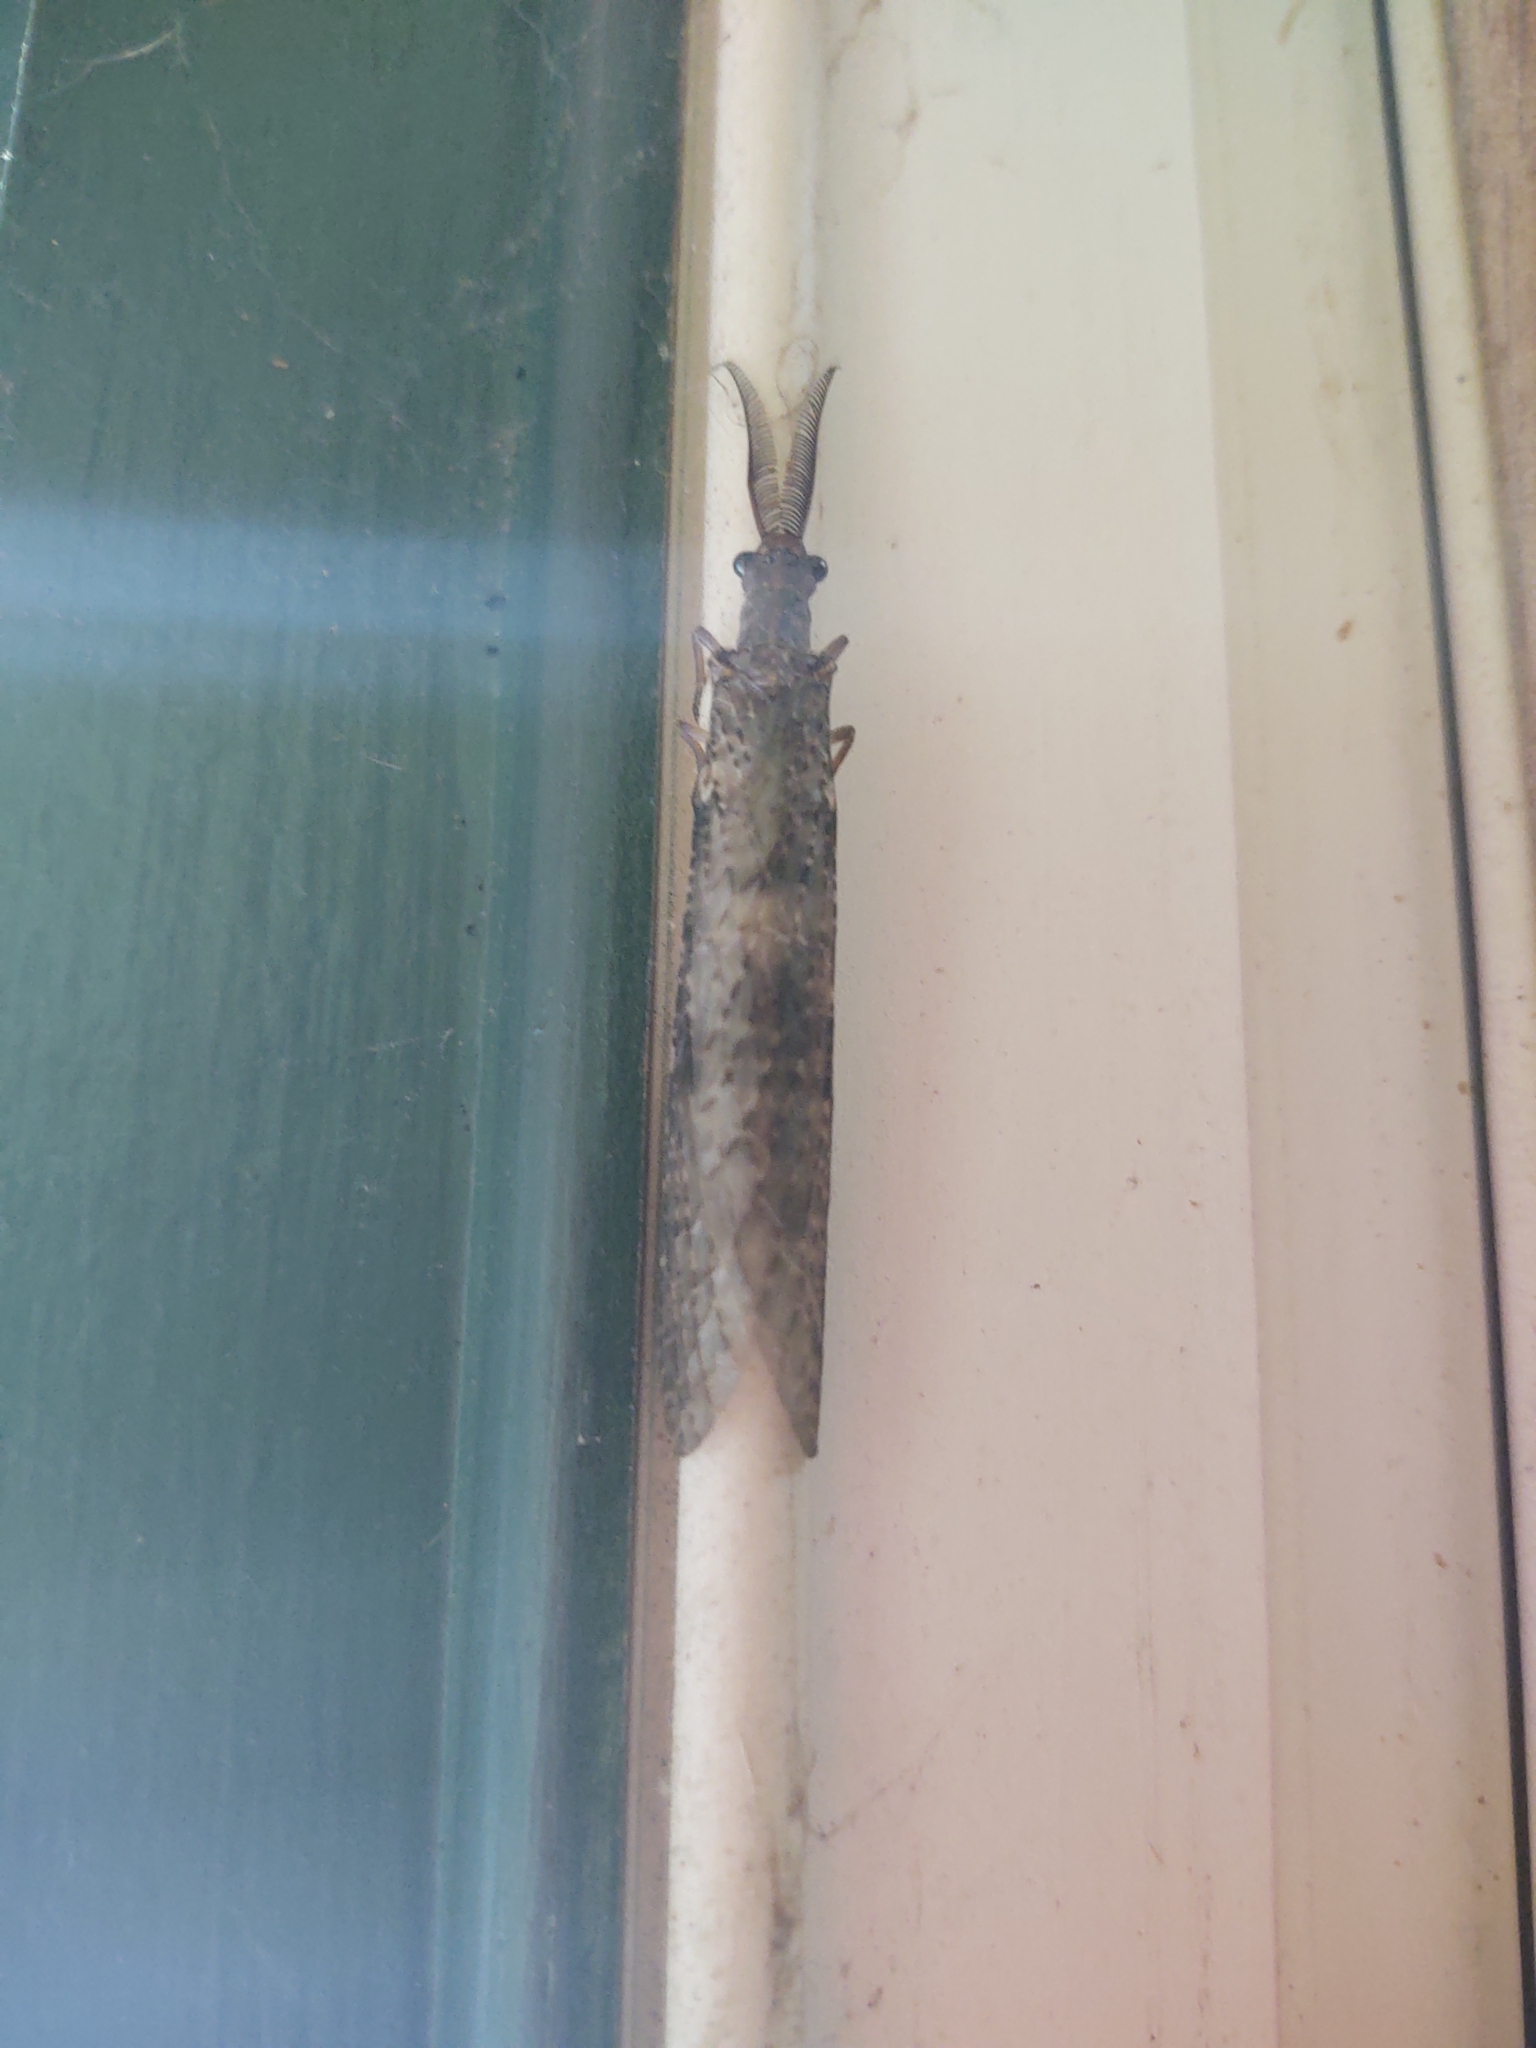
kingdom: Animalia
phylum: Arthropoda
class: Insecta
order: Megaloptera
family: Corydalidae
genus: Chauliodes
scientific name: Chauliodes pectinicornis
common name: Summer fishfly
